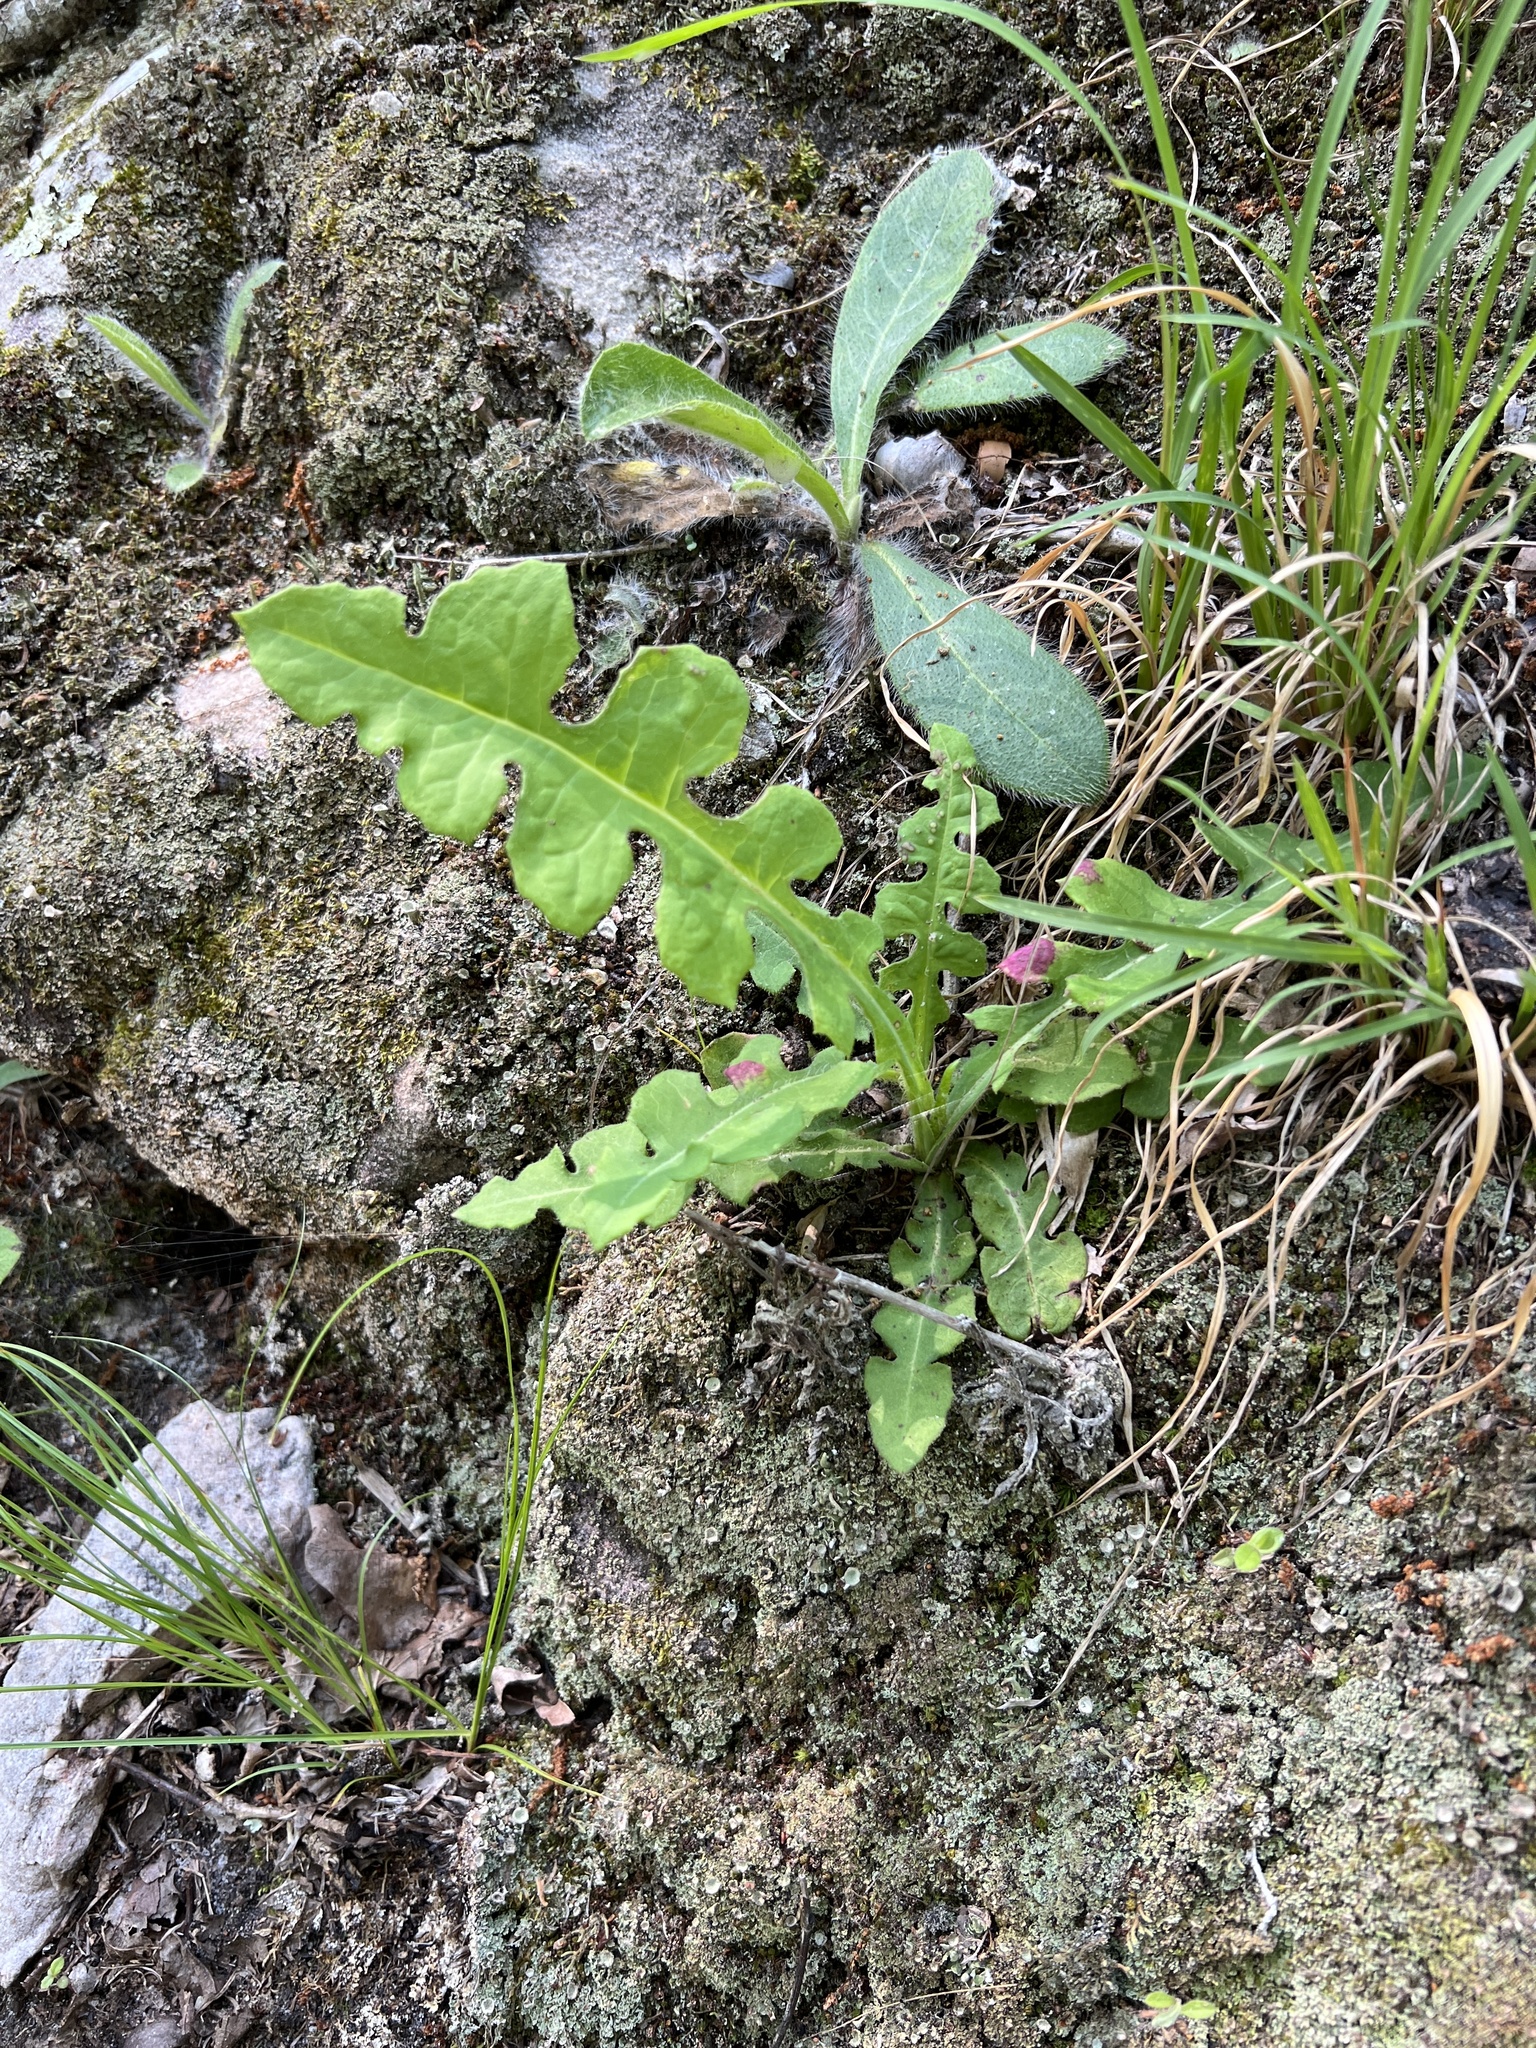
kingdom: Plantae
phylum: Tracheophyta
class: Magnoliopsida
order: Asterales
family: Asteraceae
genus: Lactuca
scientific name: Lactuca hirsuta
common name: Hairy lettuce
